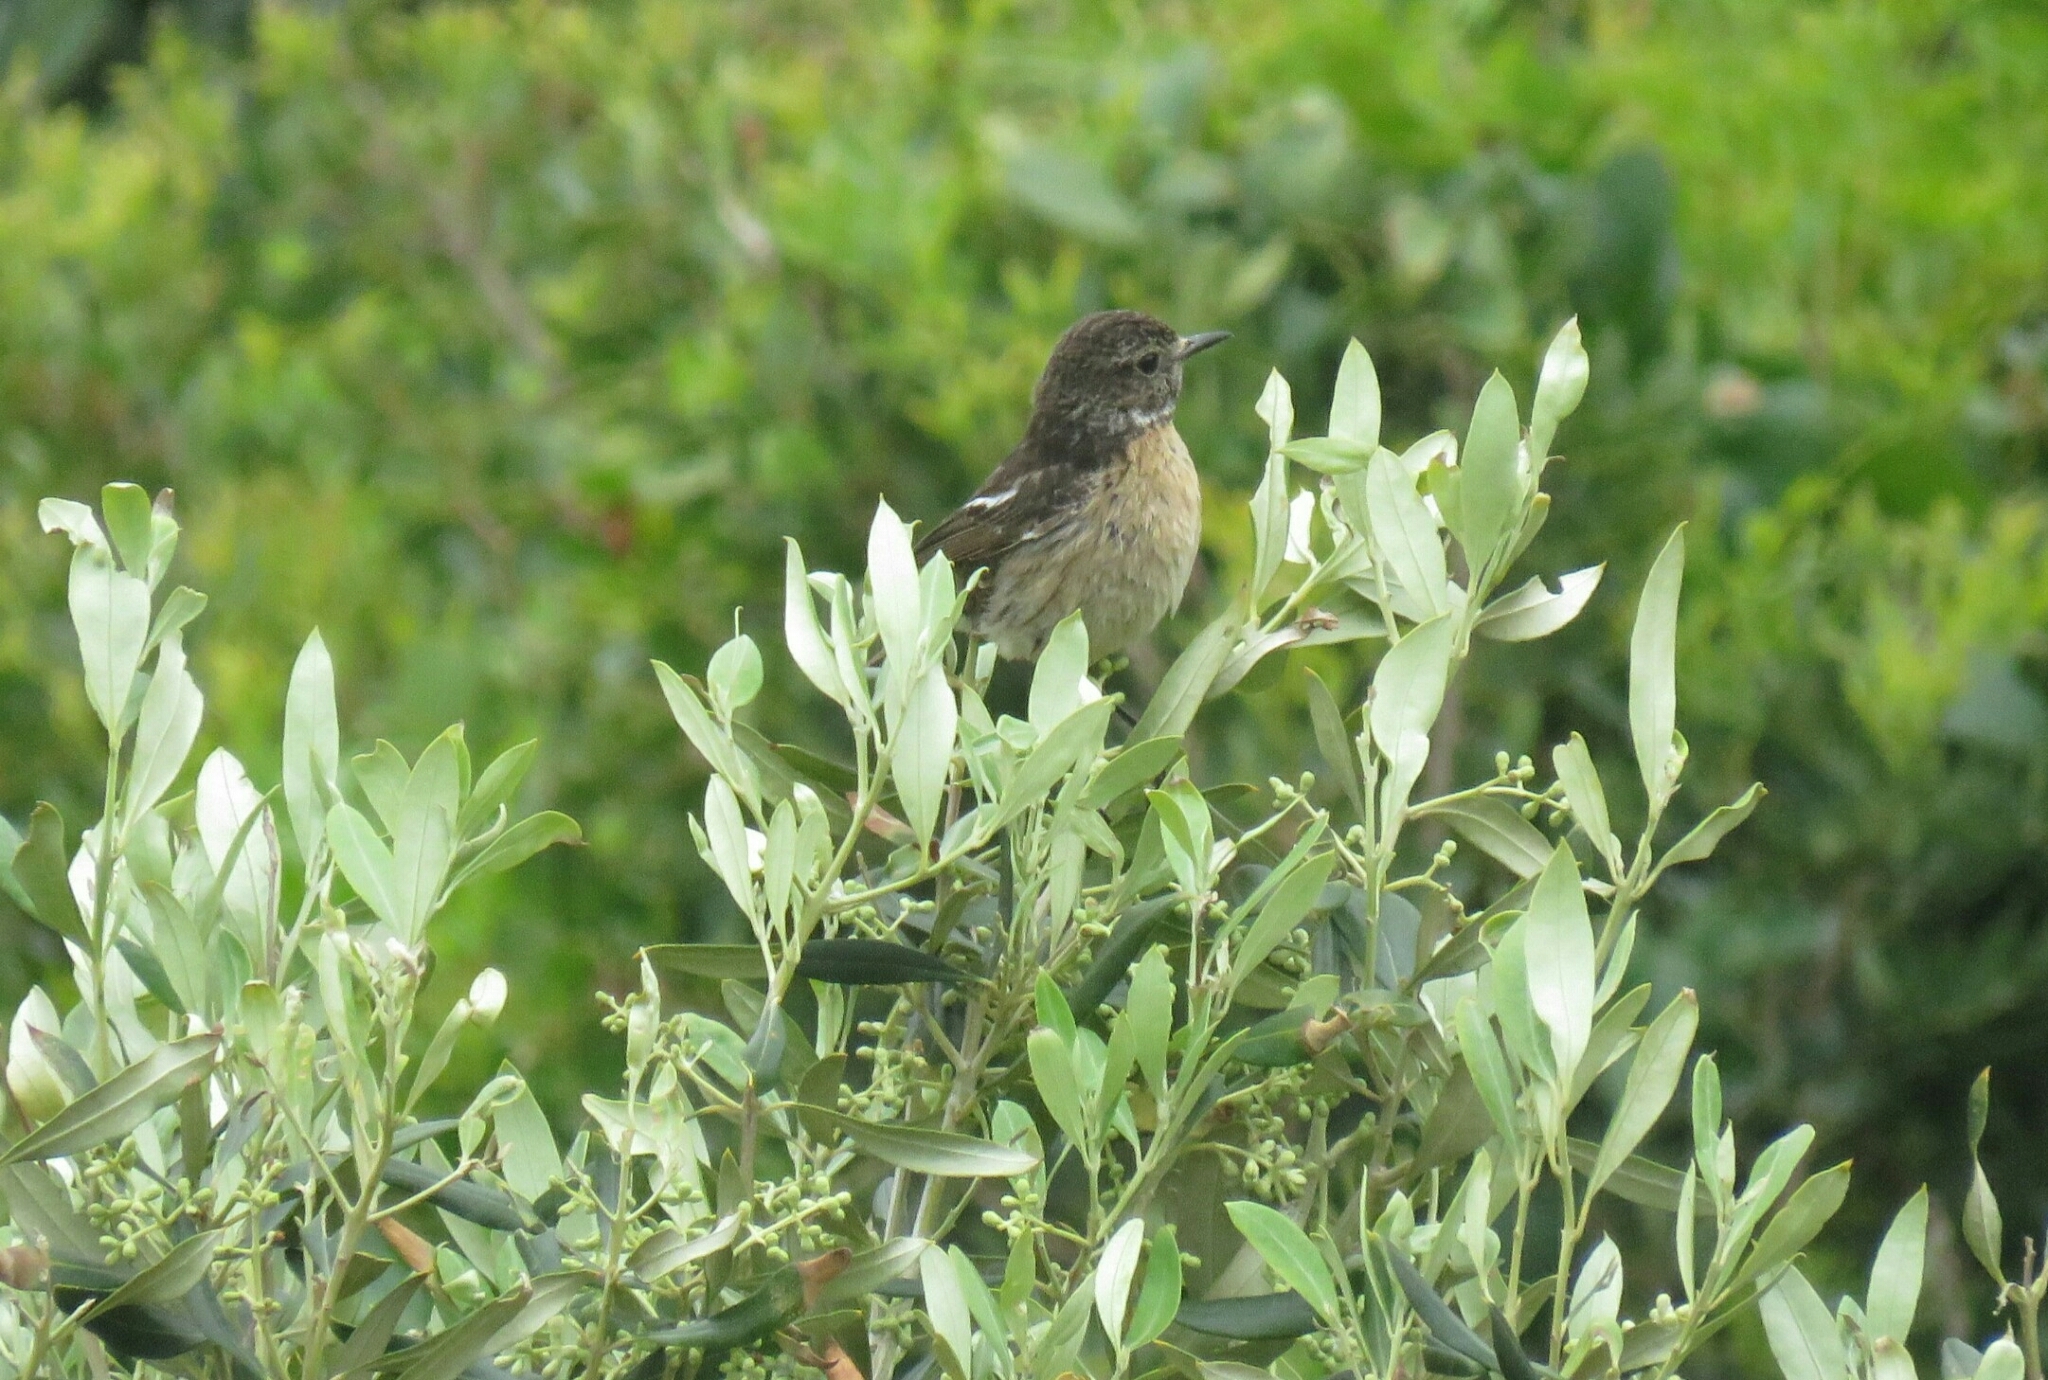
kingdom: Animalia
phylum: Chordata
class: Aves
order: Passeriformes
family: Muscicapidae
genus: Saxicola
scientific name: Saxicola rubicola
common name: European stonechat
